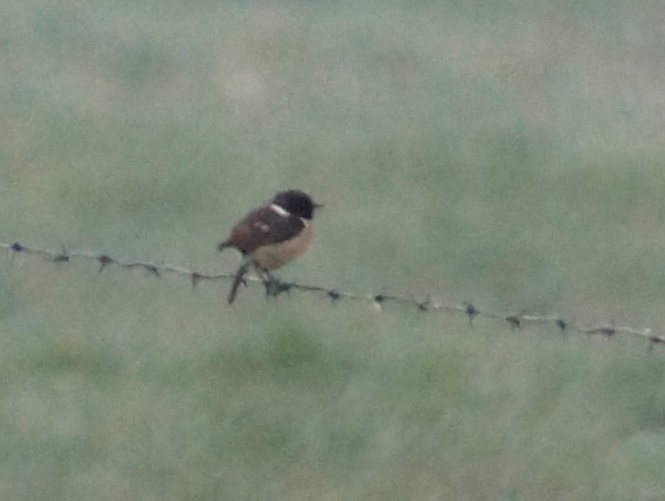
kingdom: Animalia
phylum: Chordata
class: Aves
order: Passeriformes
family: Muscicapidae
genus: Saxicola
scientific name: Saxicola rubicola
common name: European stonechat
